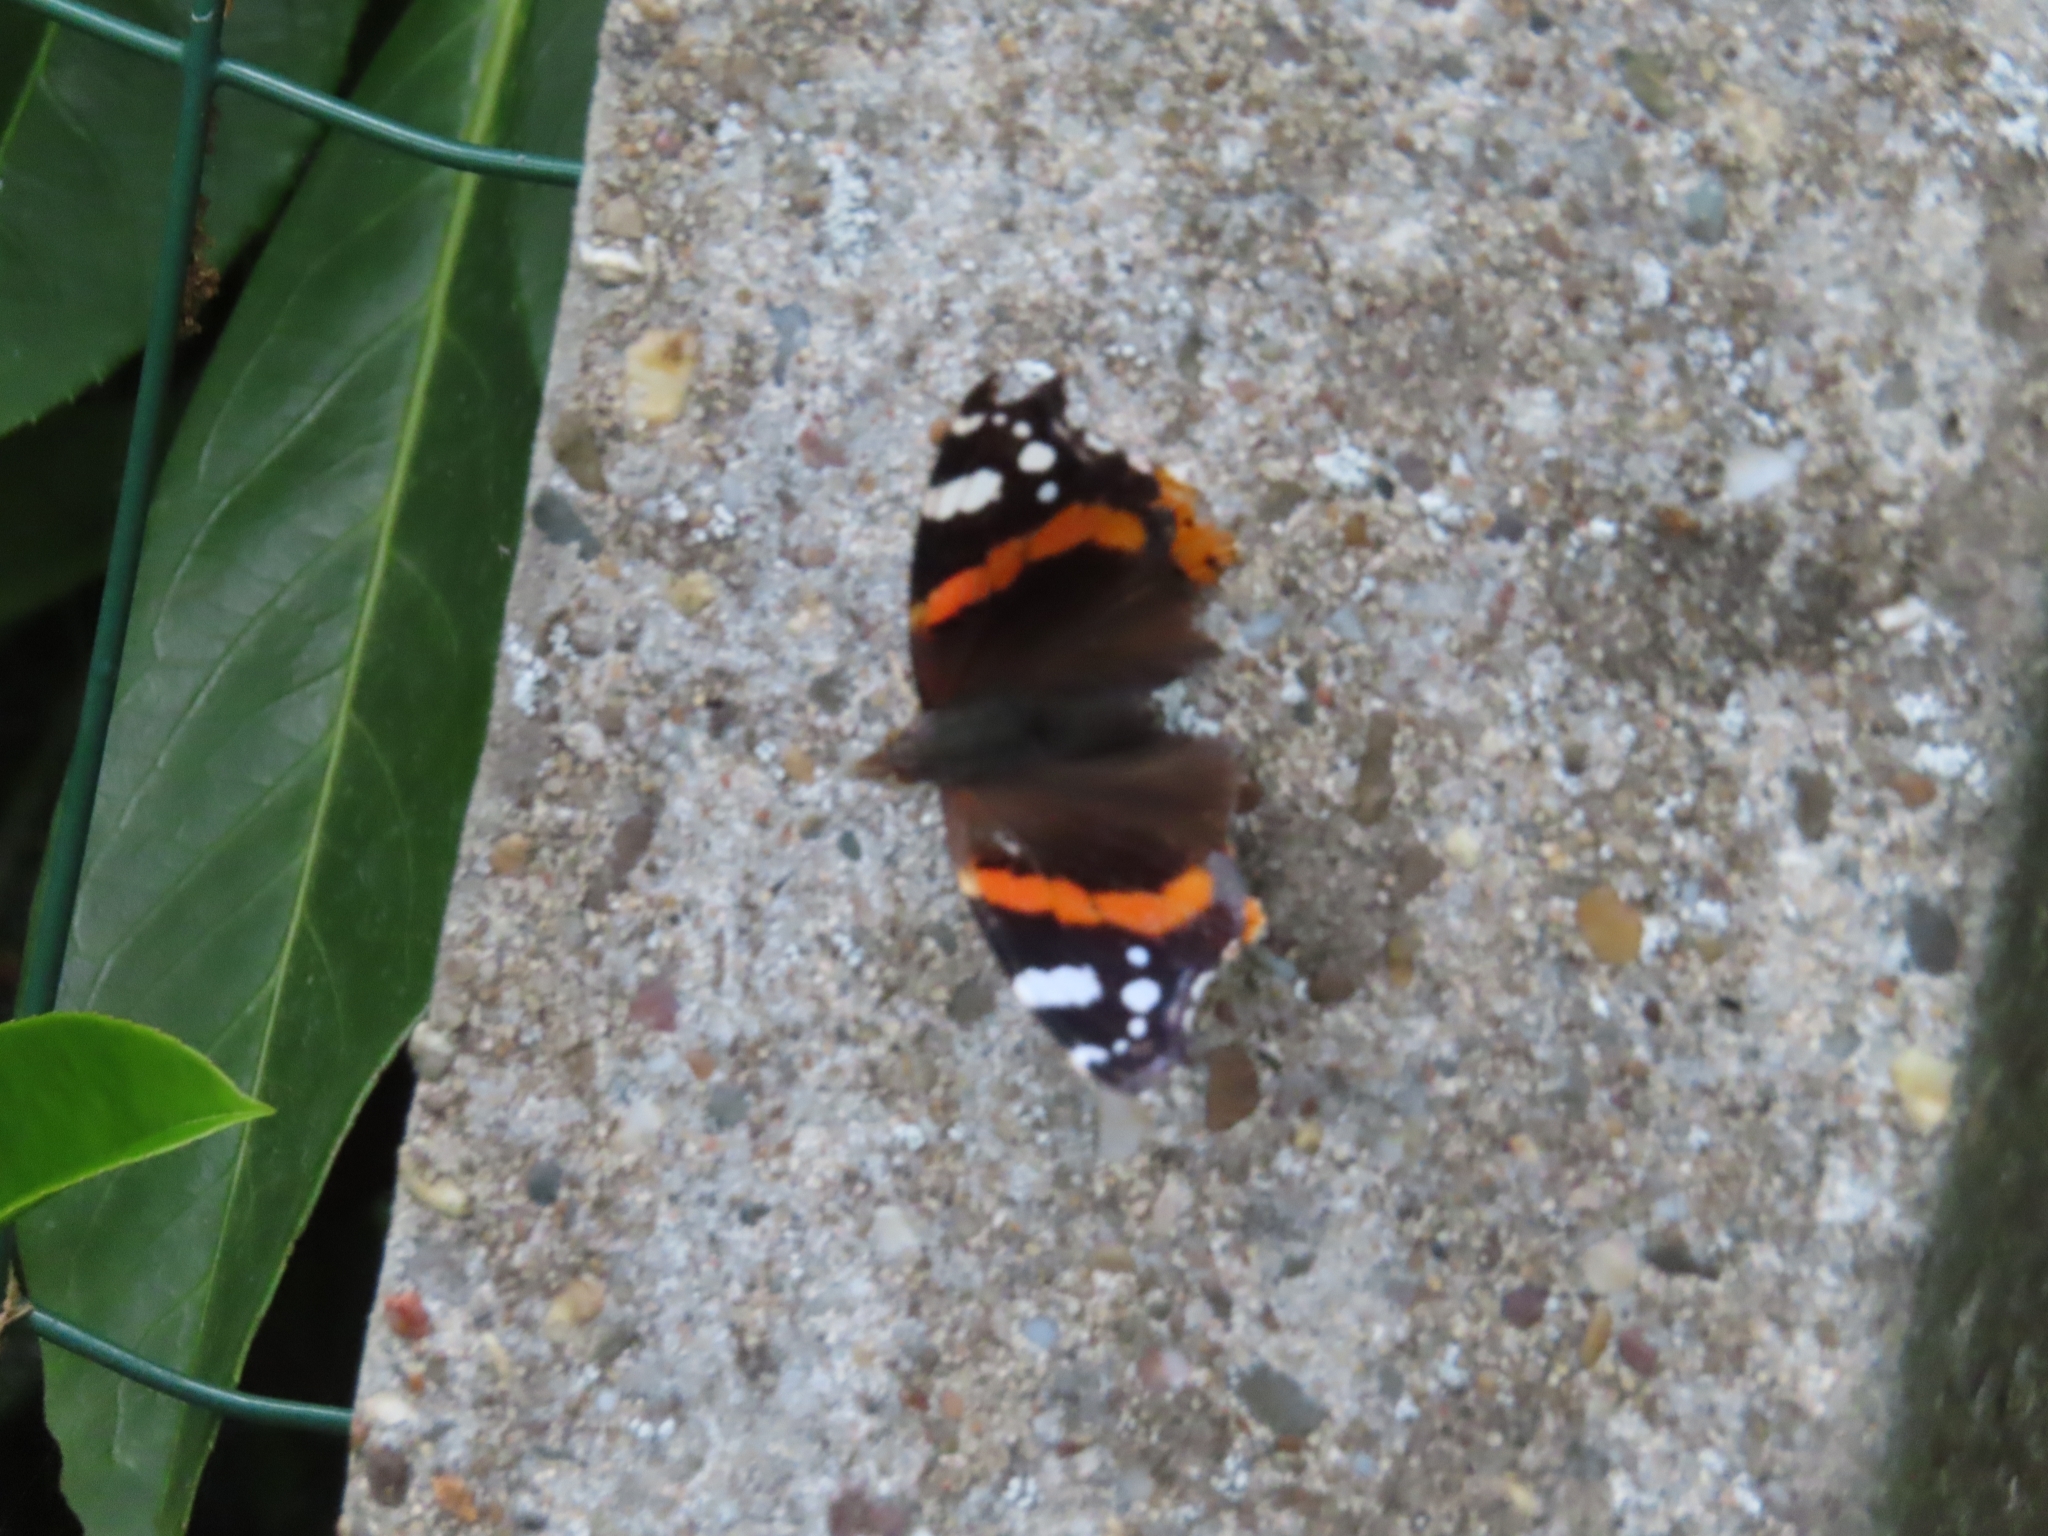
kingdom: Animalia
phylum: Arthropoda
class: Insecta
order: Lepidoptera
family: Nymphalidae
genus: Vanessa
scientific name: Vanessa atalanta
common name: Red admiral
